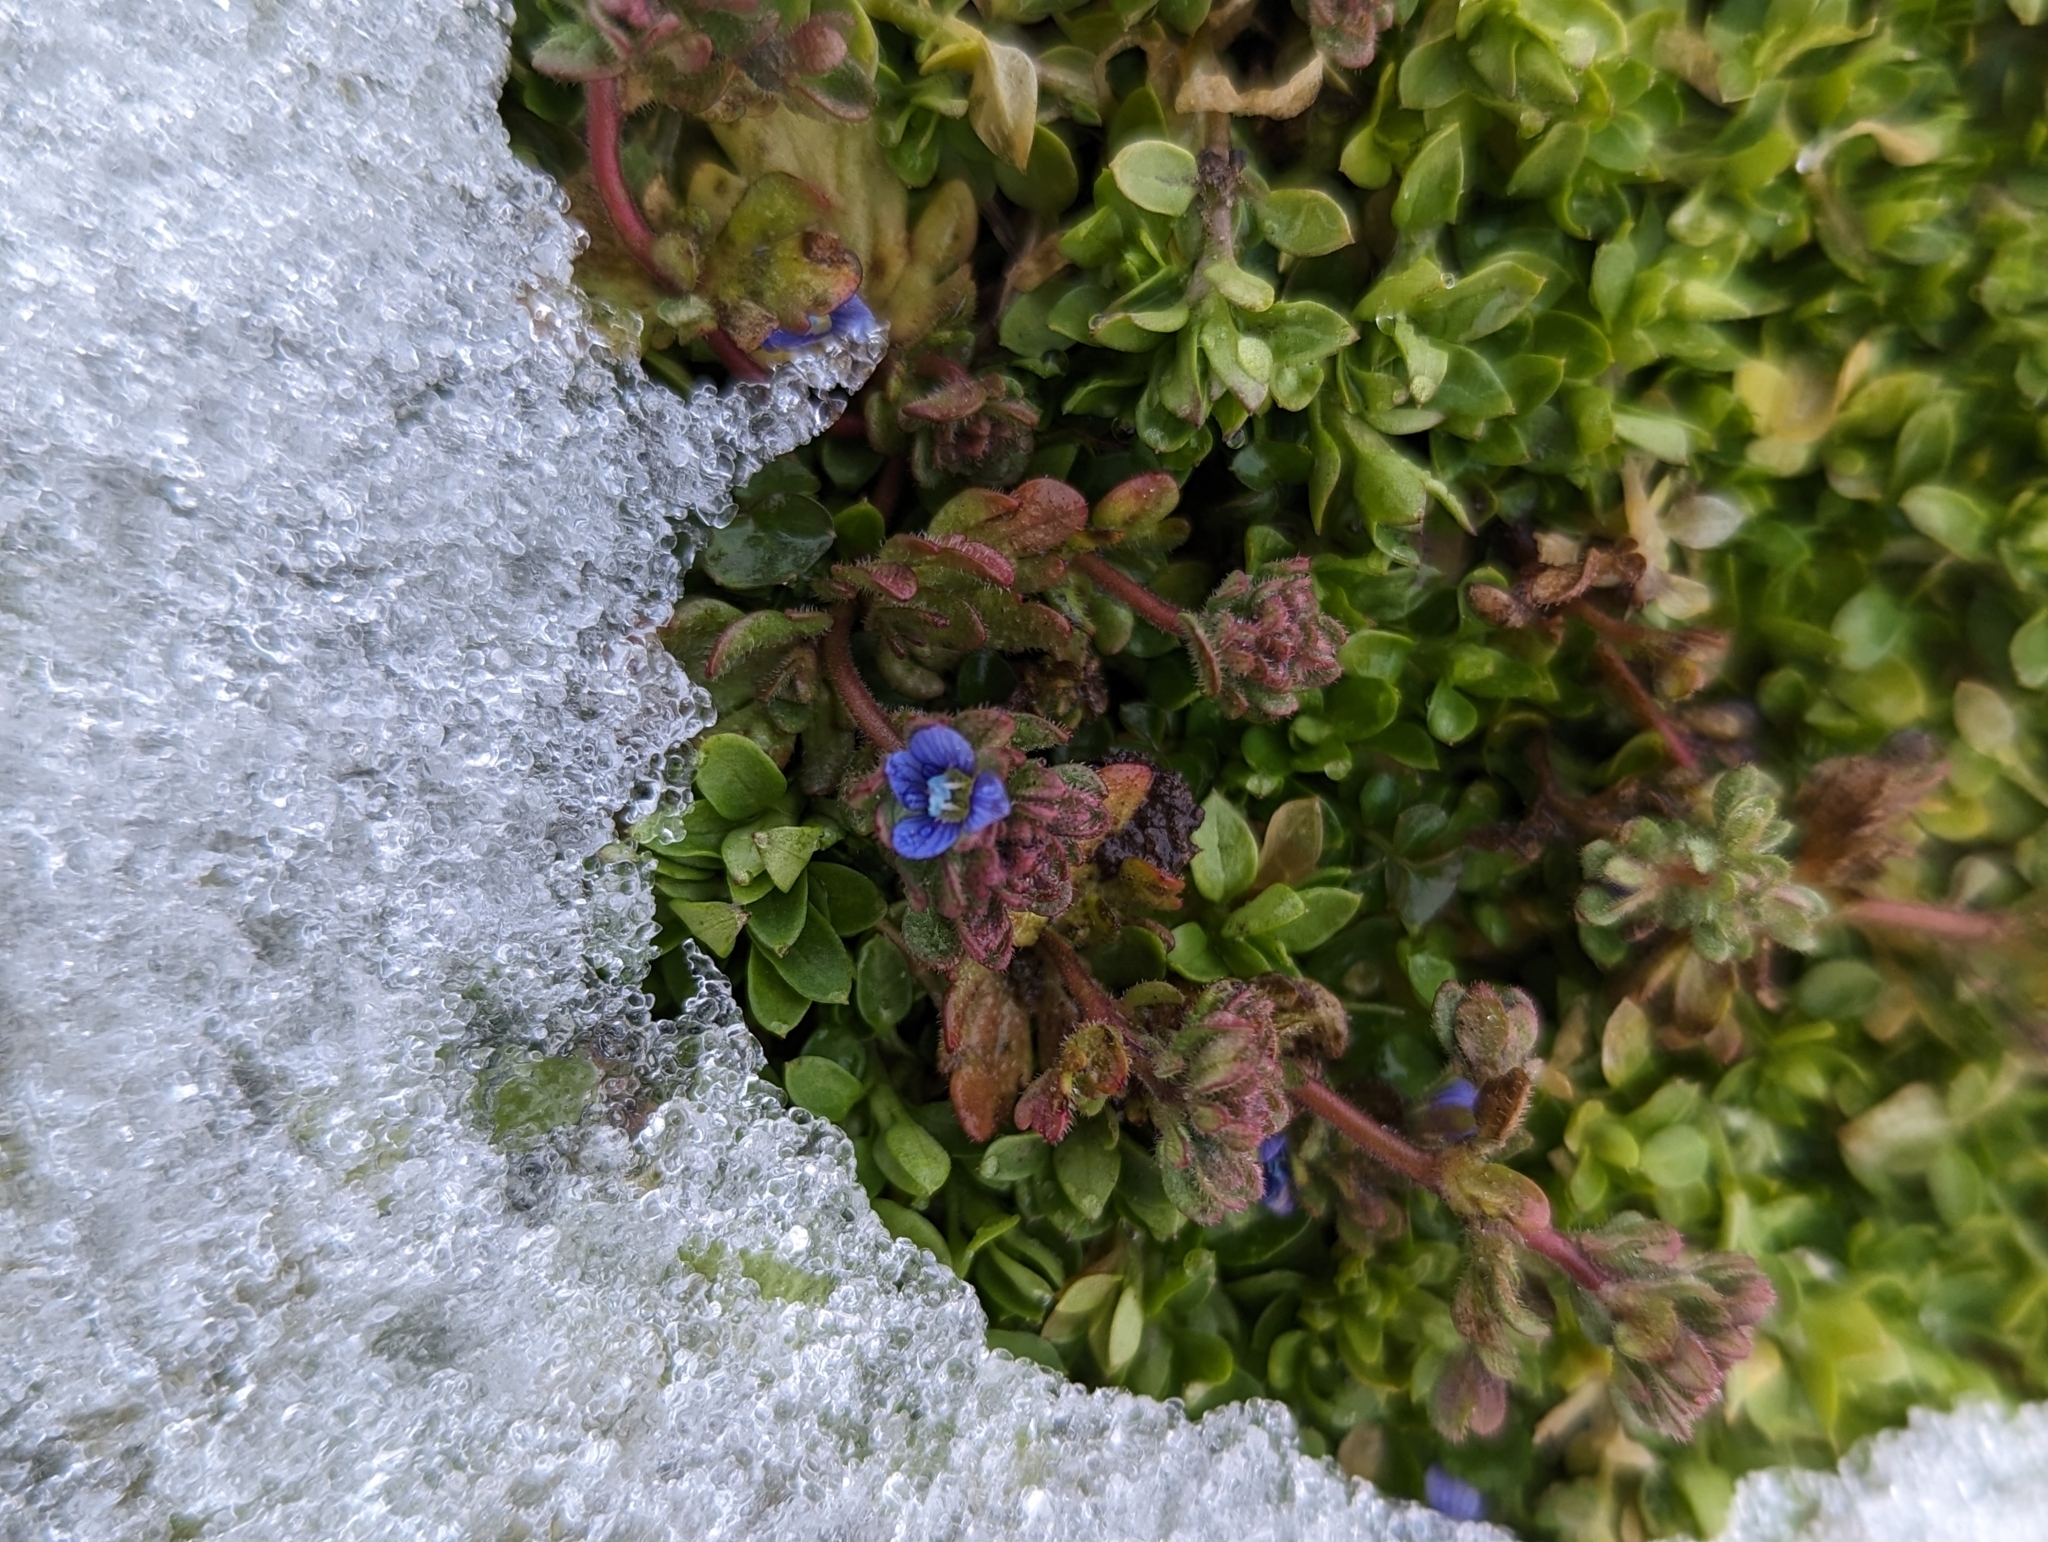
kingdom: Plantae
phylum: Tracheophyta
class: Magnoliopsida
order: Lamiales
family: Plantaginaceae
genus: Veronica
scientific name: Veronica triphyllos
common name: Fingered speedwell
